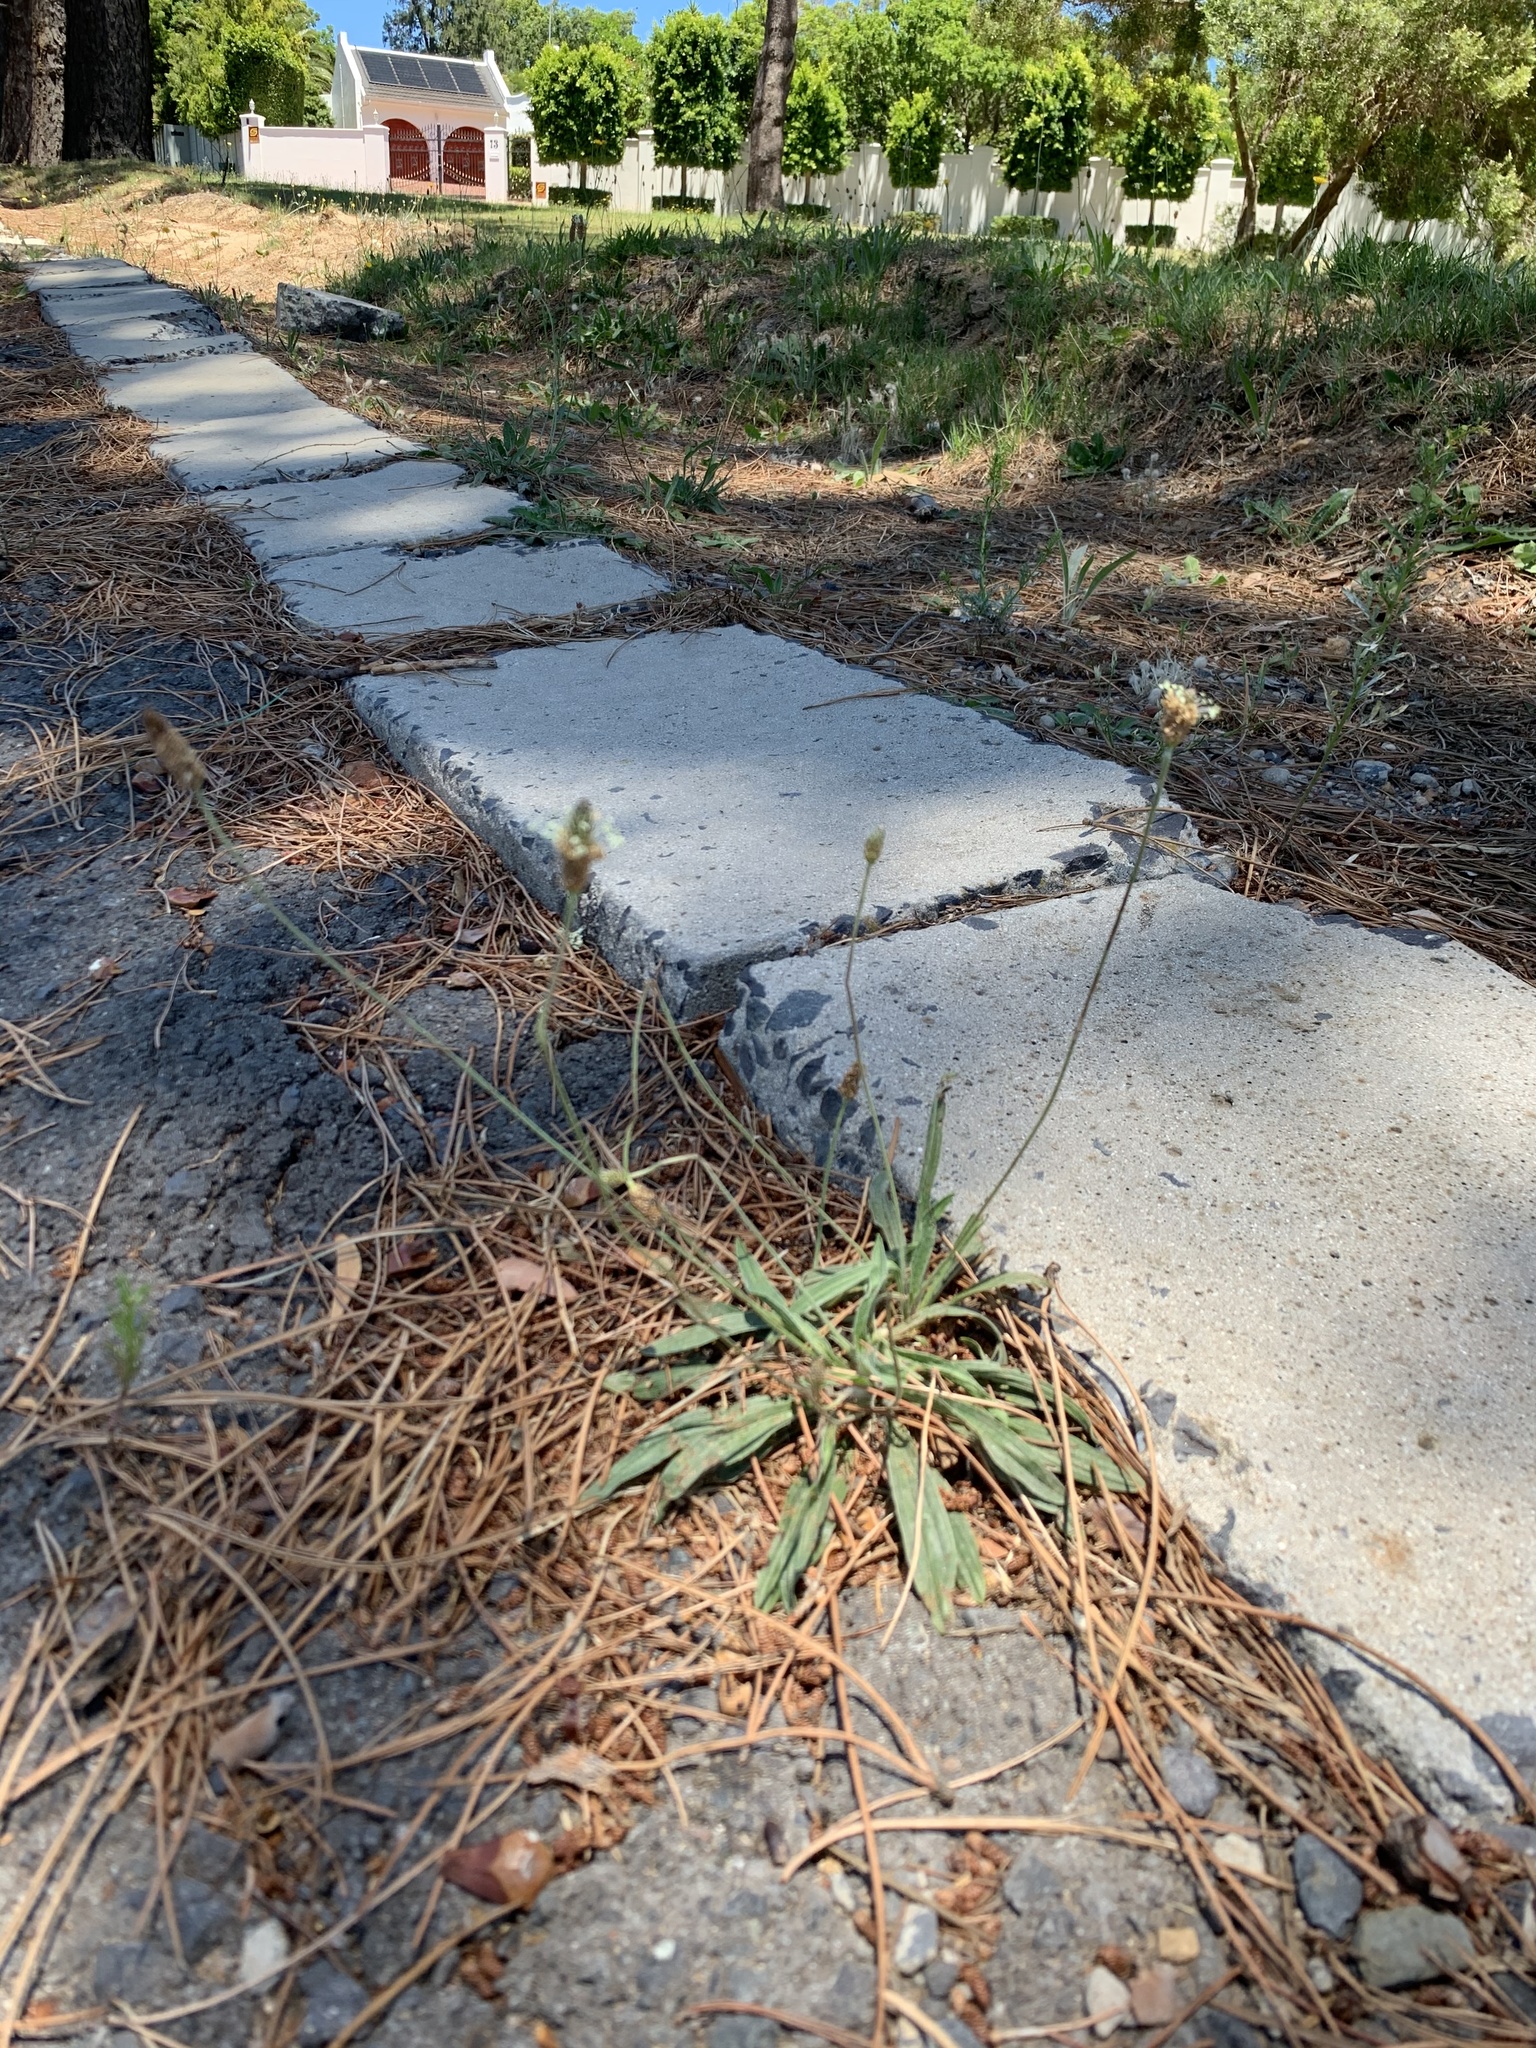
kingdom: Plantae
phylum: Tracheophyta
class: Magnoliopsida
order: Lamiales
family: Plantaginaceae
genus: Plantago
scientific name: Plantago lanceolata
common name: Ribwort plantain
